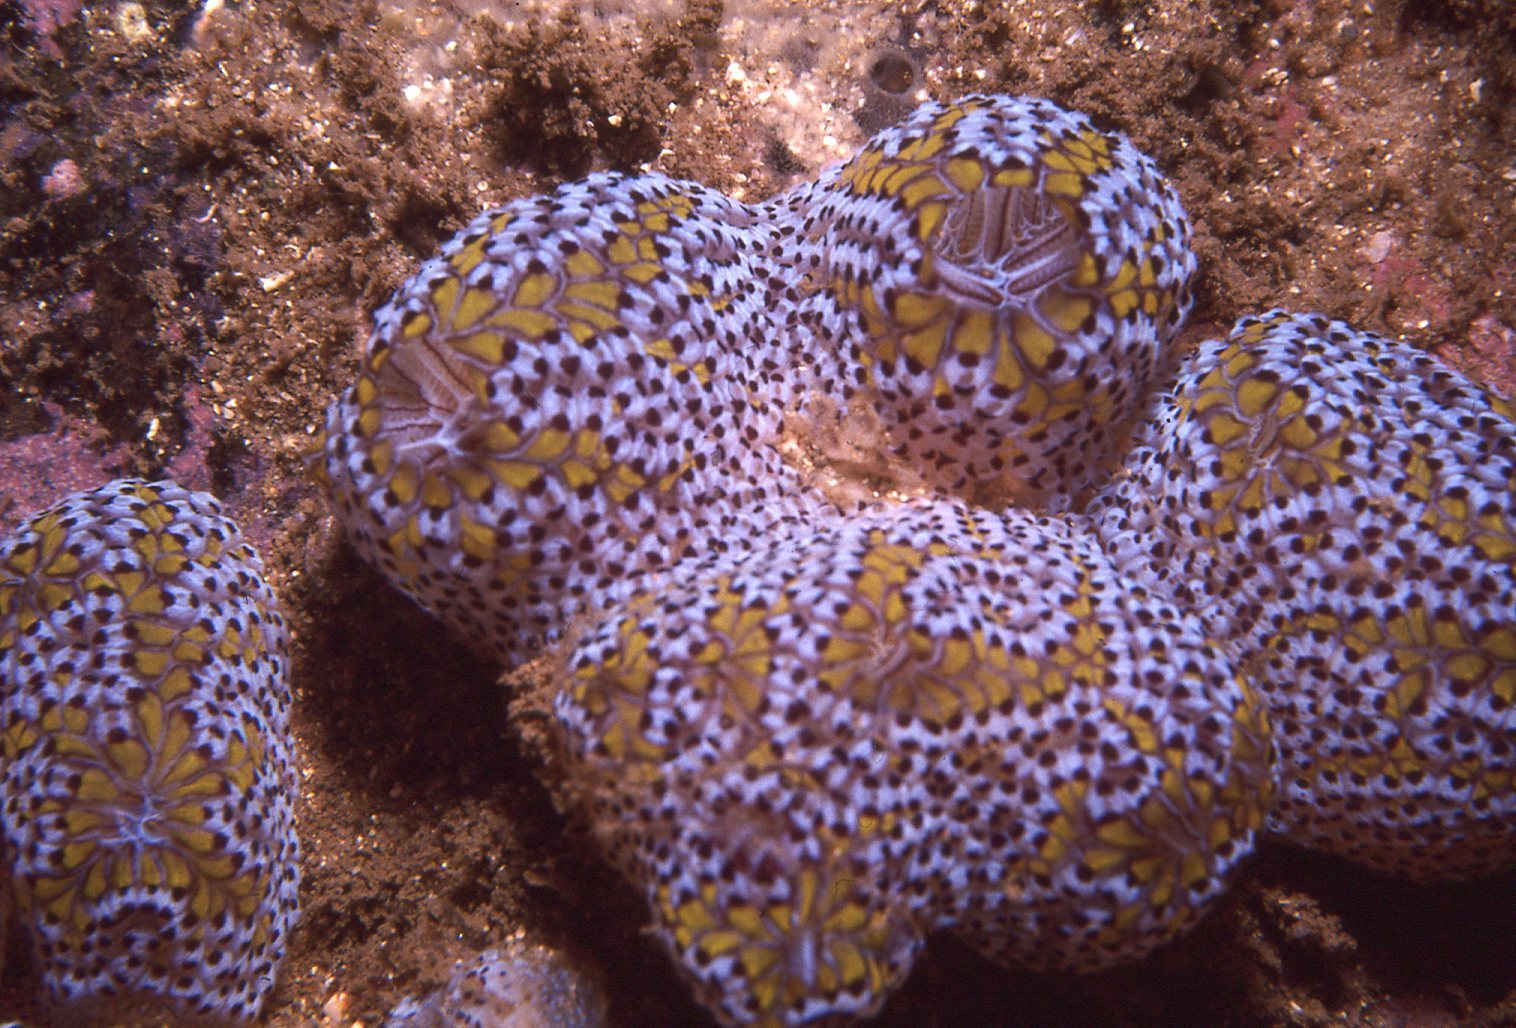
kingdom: Animalia
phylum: Chordata
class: Ascidiacea
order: Stolidobranchia
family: Styelidae
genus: Botrylloides
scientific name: Botrylloides magnicoecus
